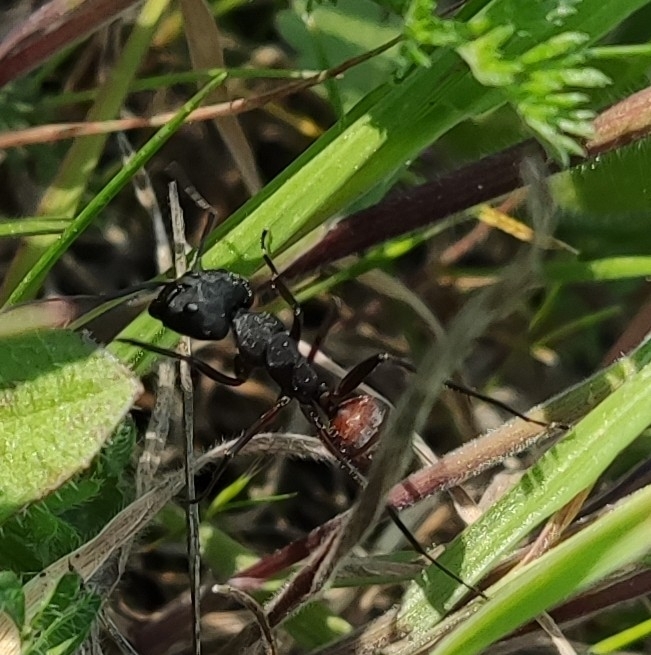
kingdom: Animalia
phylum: Arthropoda
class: Insecta
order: Hymenoptera
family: Formicidae
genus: Camponotus
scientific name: Camponotus cruentatus
